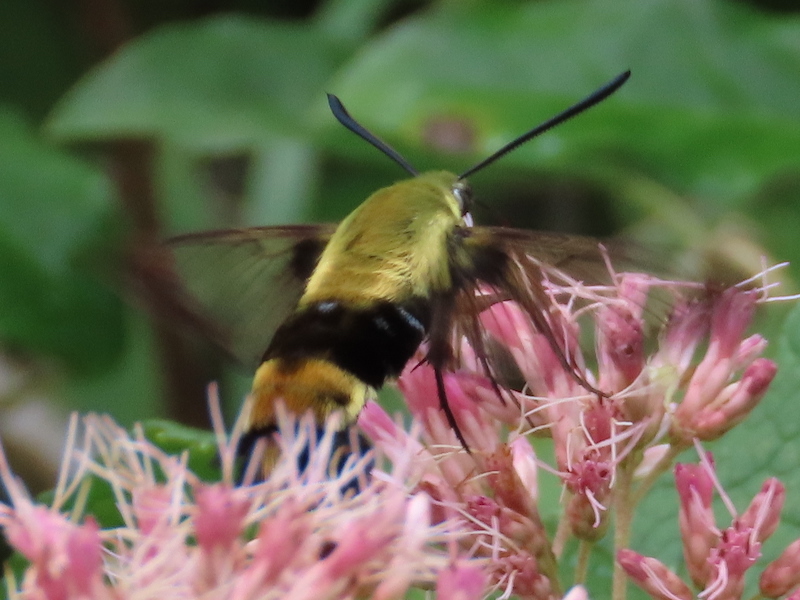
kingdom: Animalia
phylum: Arthropoda
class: Insecta
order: Lepidoptera
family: Sphingidae
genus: Hemaris
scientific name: Hemaris diffinis
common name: Bumblebee moth
